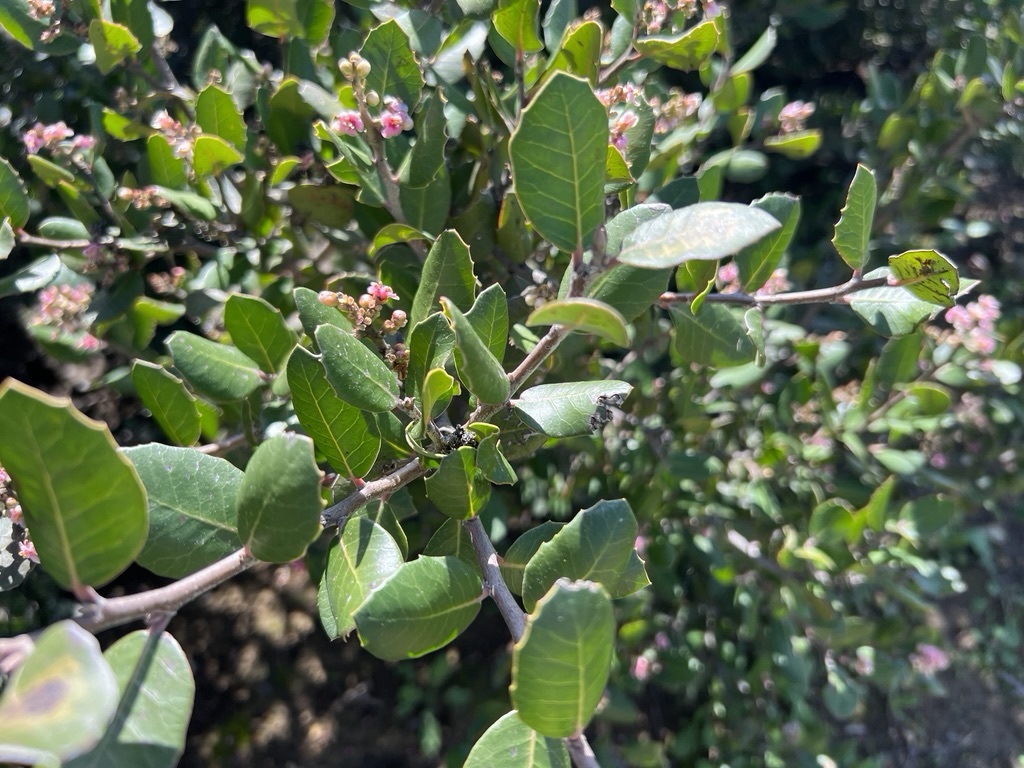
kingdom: Plantae
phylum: Tracheophyta
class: Magnoliopsida
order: Sapindales
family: Anacardiaceae
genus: Rhus
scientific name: Rhus integrifolia
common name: Lemonade sumac
